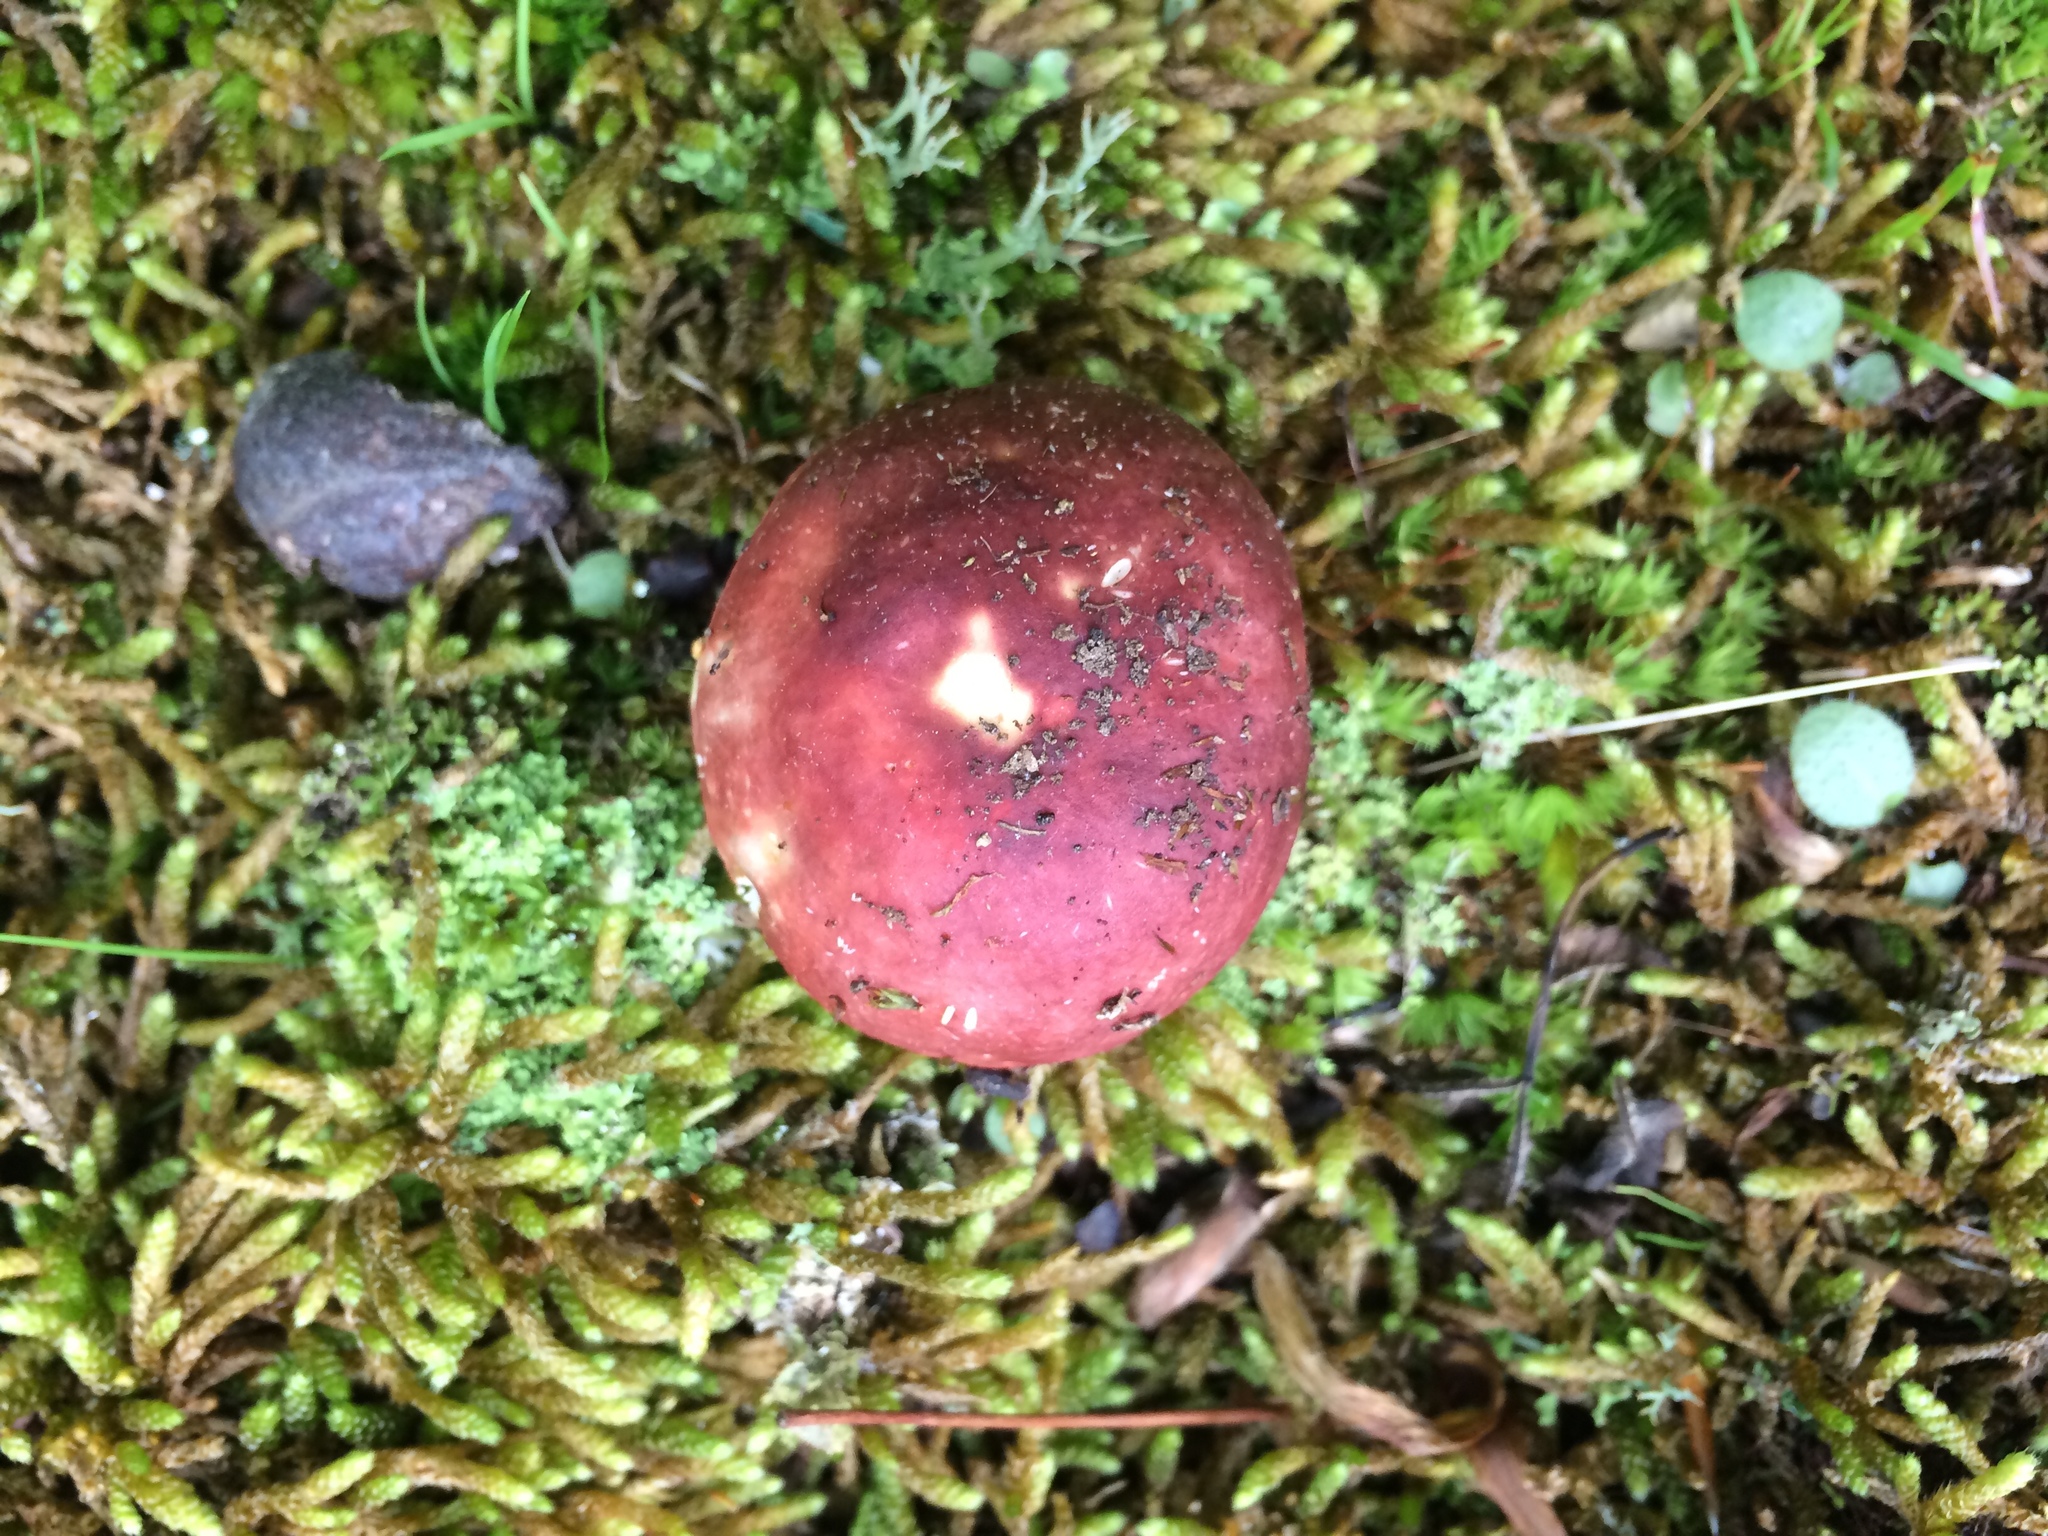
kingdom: Fungi
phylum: Basidiomycota
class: Agaricomycetes
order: Russulales
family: Russulaceae
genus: Russula
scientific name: Russula rugulosa
